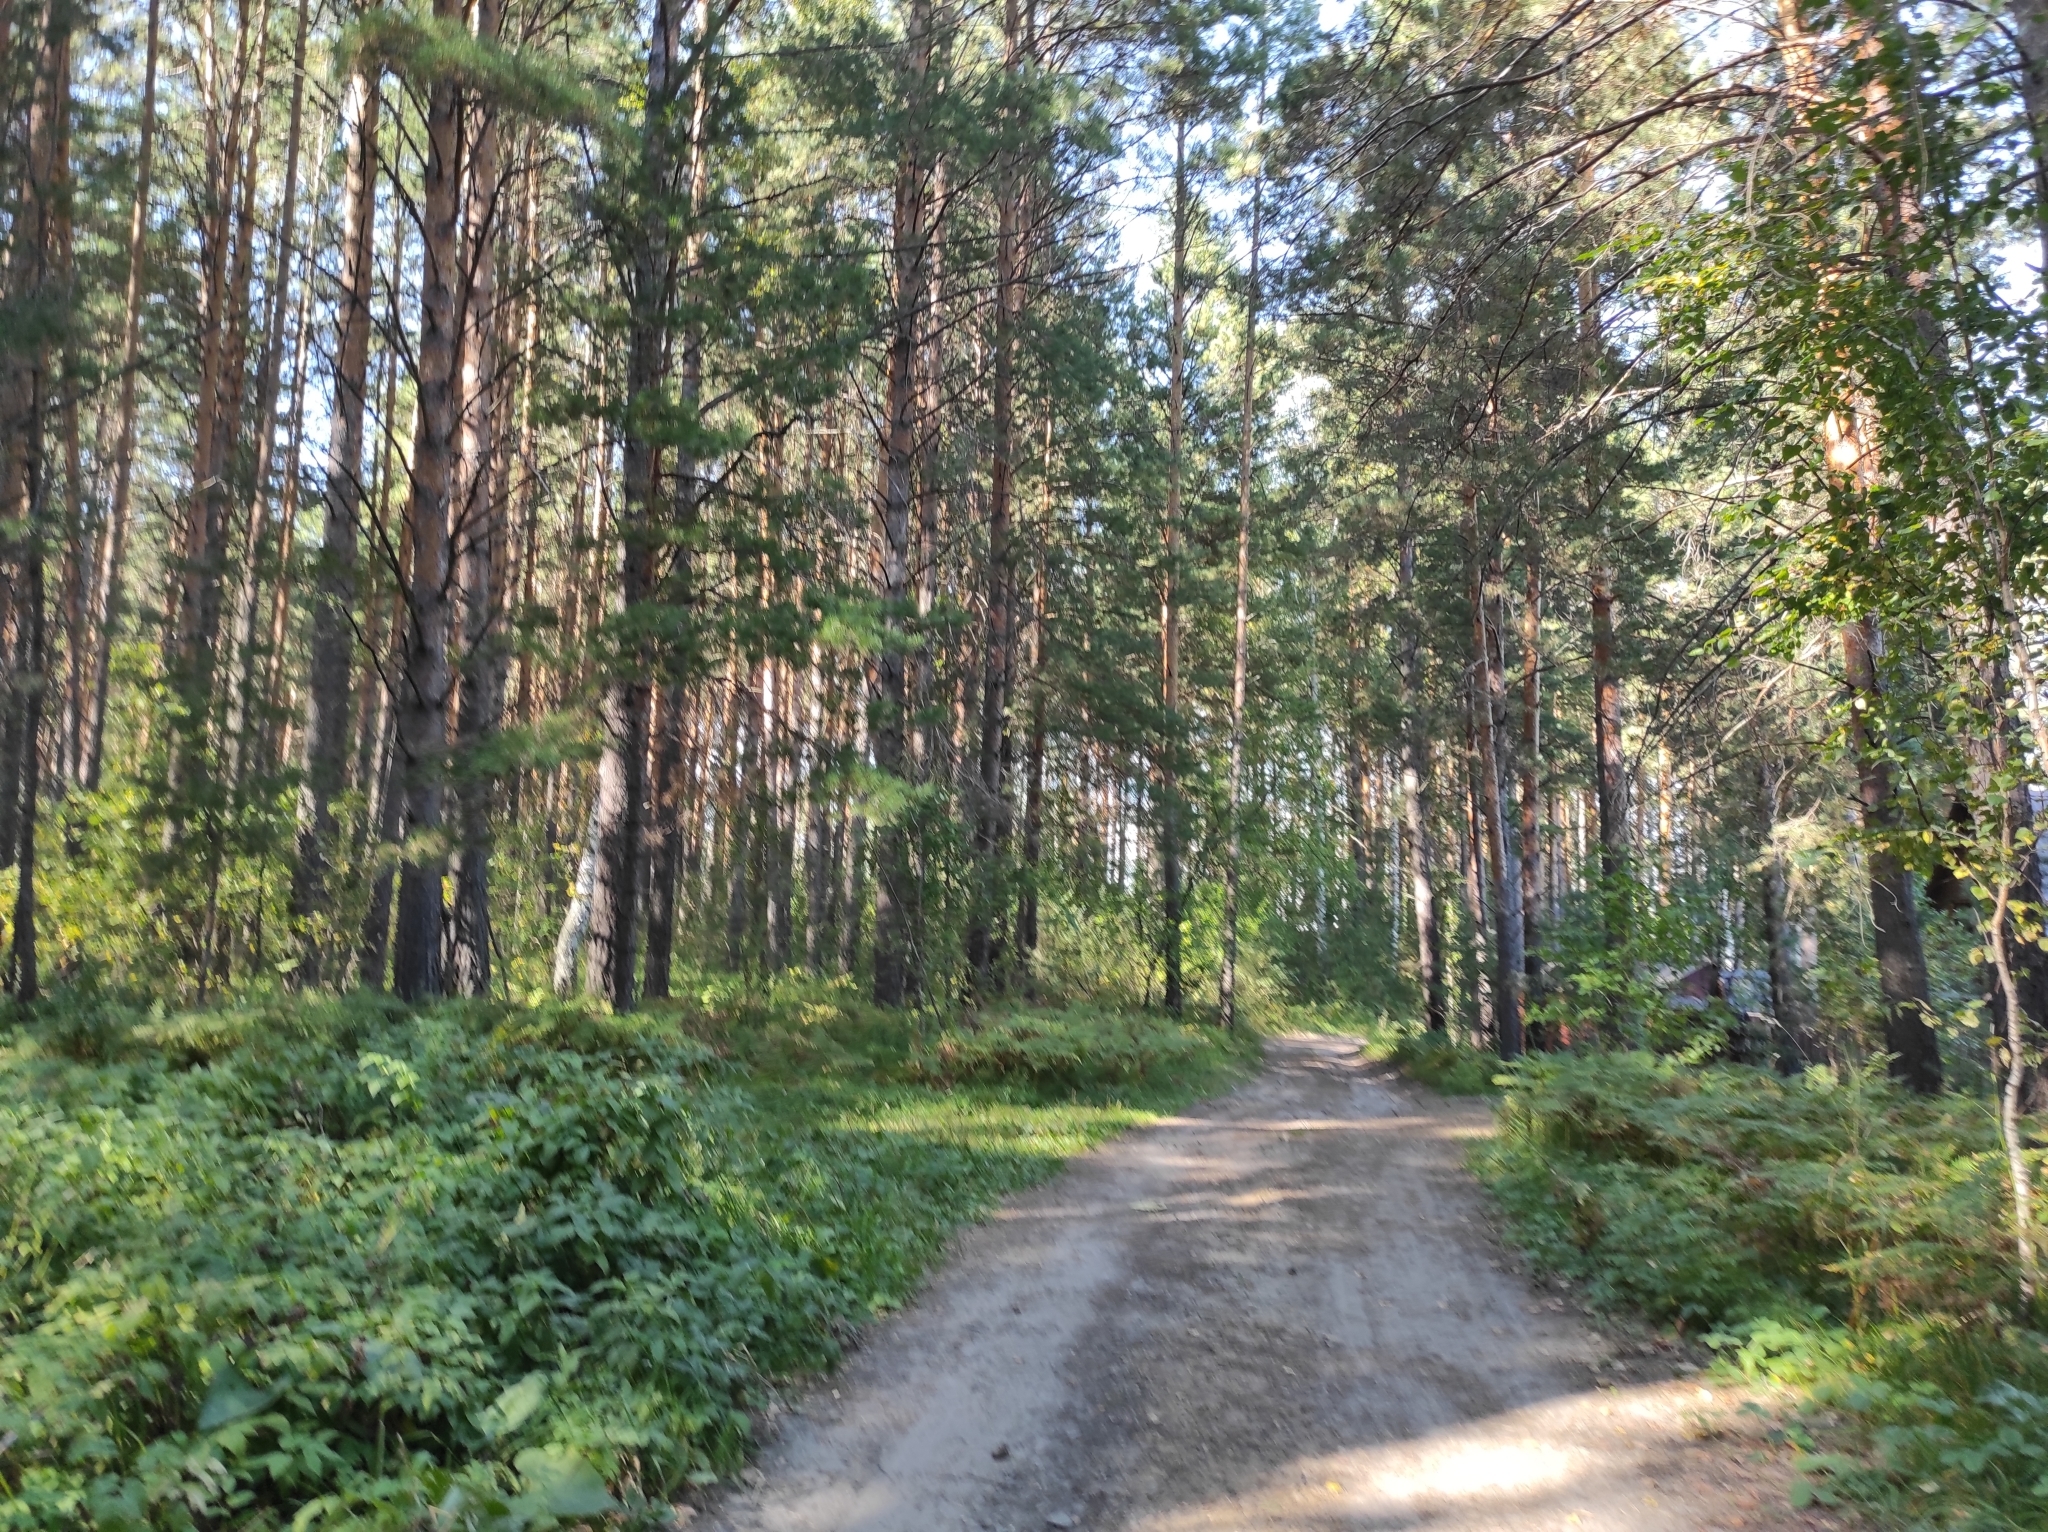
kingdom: Plantae
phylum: Tracheophyta
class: Pinopsida
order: Pinales
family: Pinaceae
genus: Pinus
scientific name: Pinus sylvestris
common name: Scots pine
